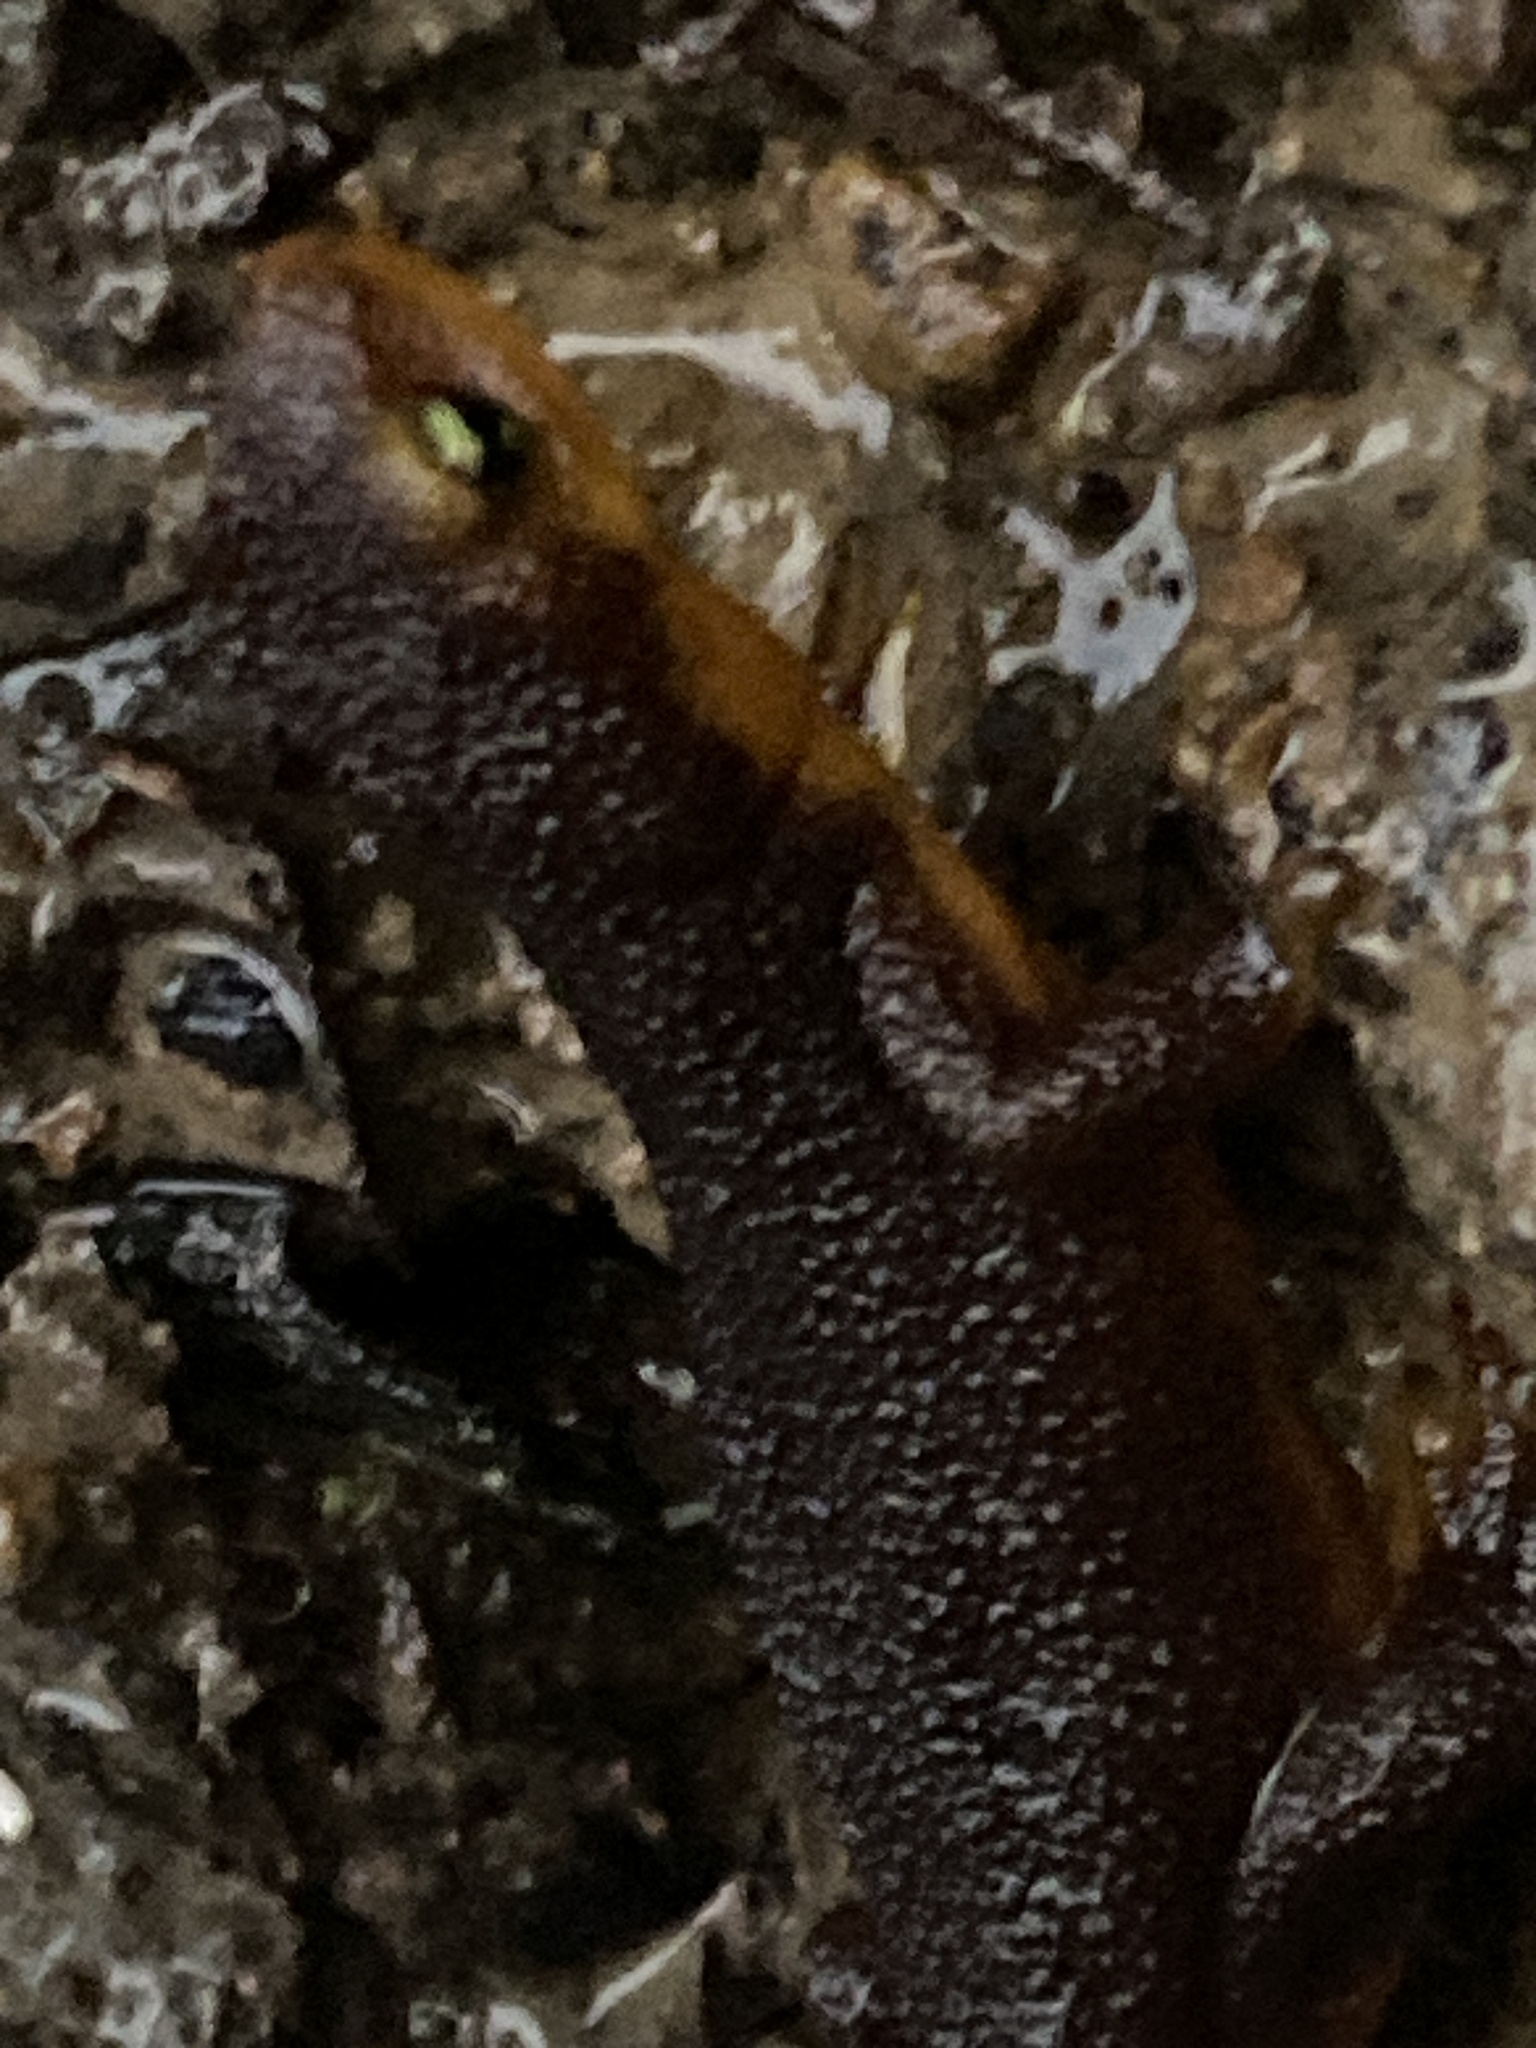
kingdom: Animalia
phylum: Chordata
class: Amphibia
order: Caudata
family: Salamandridae
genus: Taricha
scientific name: Taricha torosa
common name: California newt
